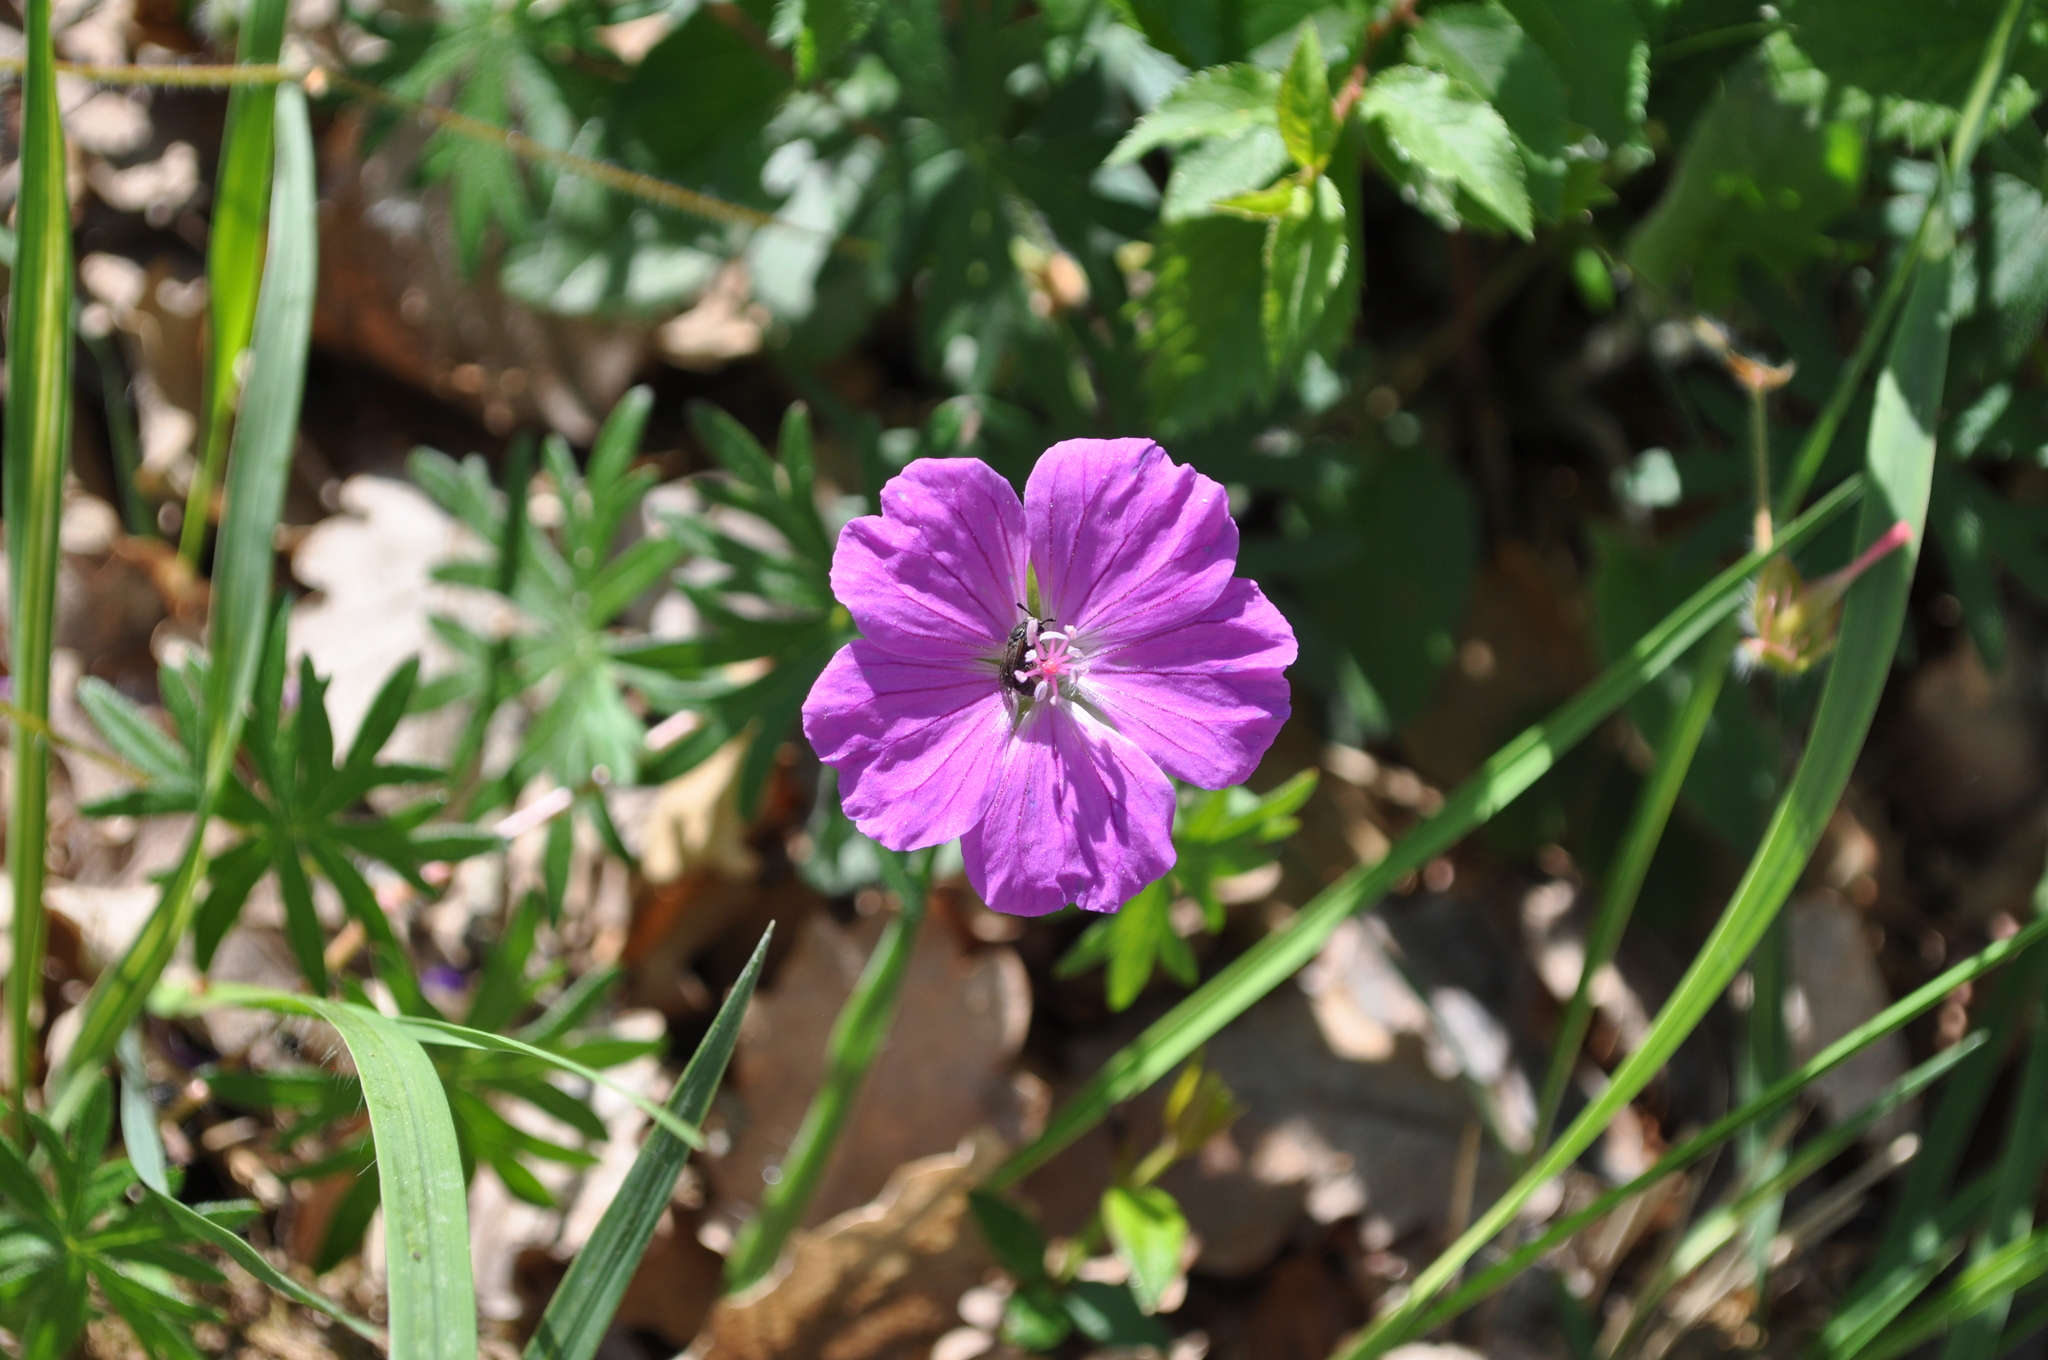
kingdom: Plantae
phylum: Tracheophyta
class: Magnoliopsida
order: Geraniales
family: Geraniaceae
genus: Geranium
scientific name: Geranium sanguineum
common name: Bloody crane's-bill
